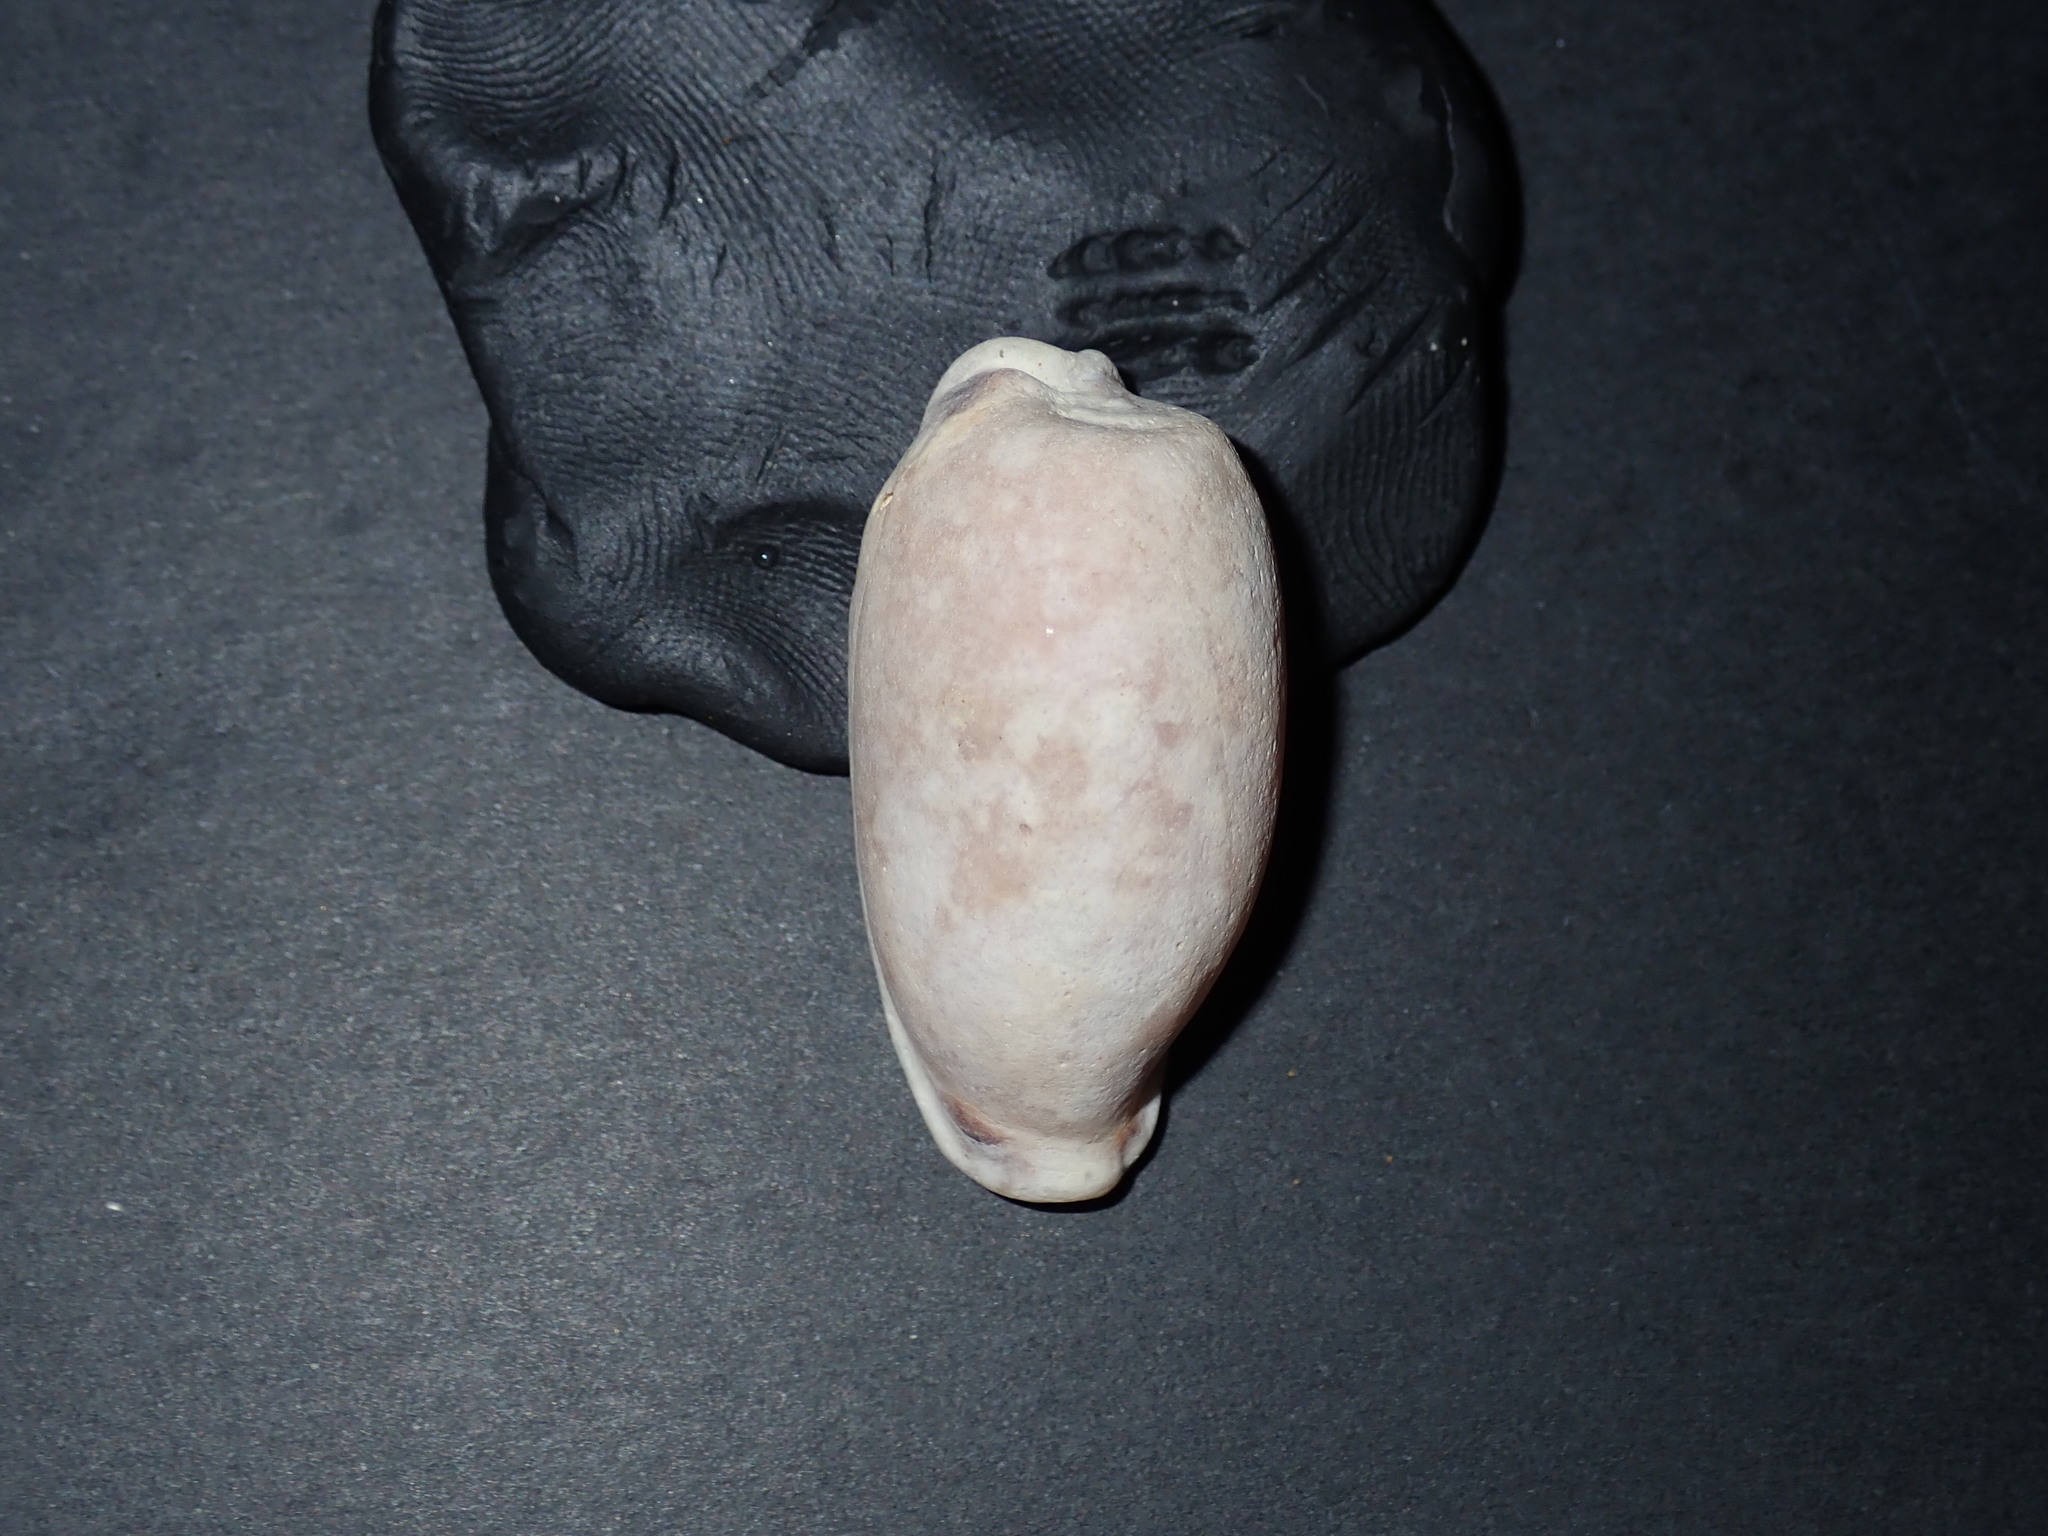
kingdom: Animalia
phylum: Mollusca
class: Gastropoda
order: Littorinimorpha
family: Cypraeidae
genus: Erronea
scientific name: Erronea cylindrica
